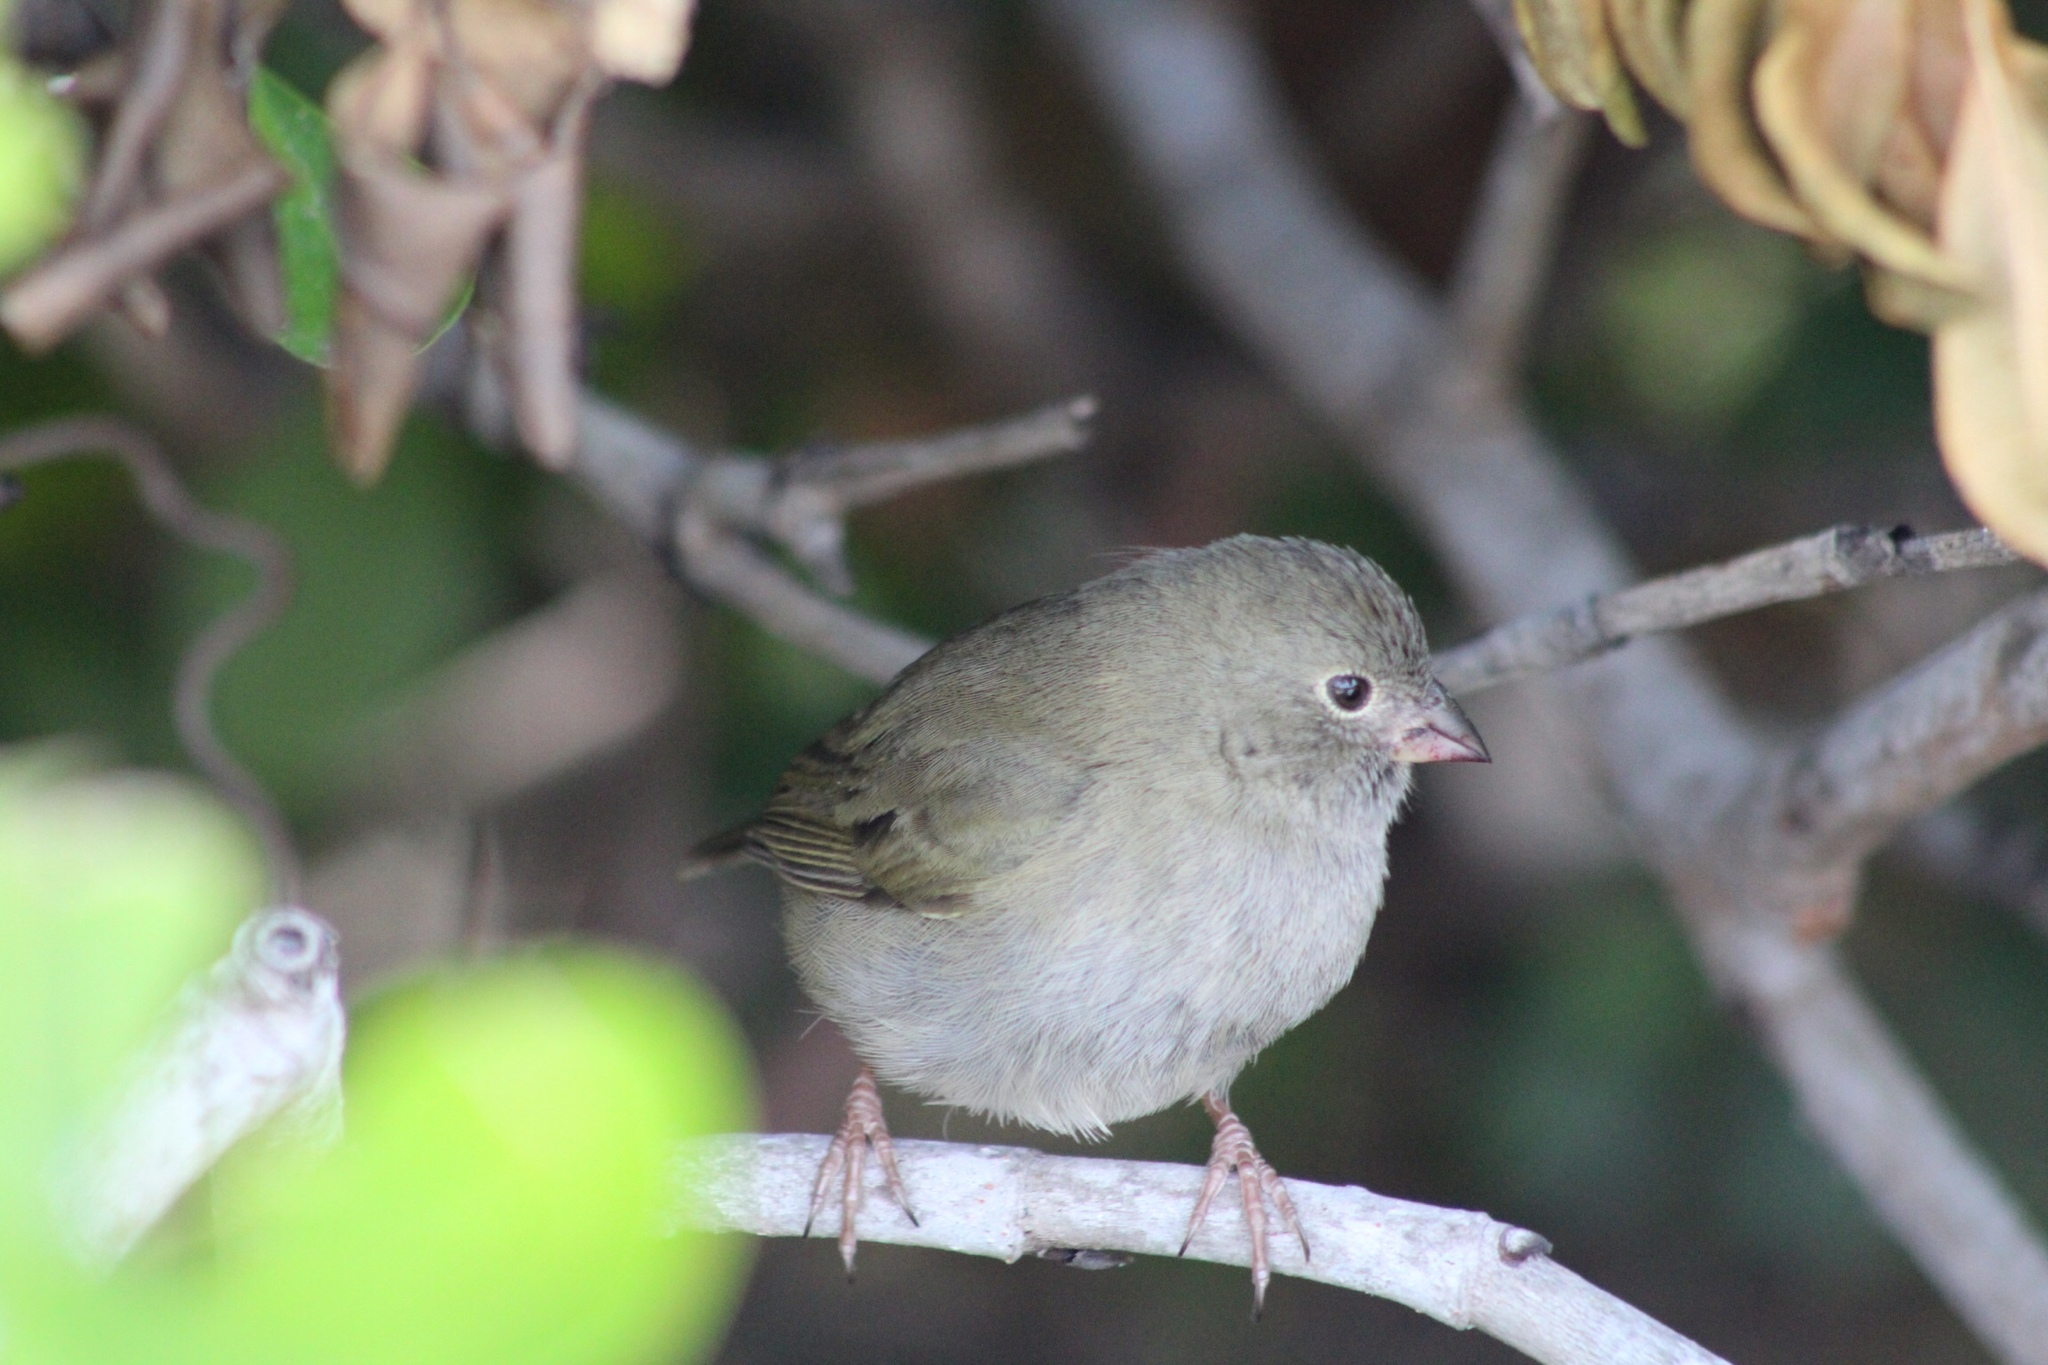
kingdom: Animalia
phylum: Chordata
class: Aves
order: Passeriformes
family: Thraupidae
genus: Melanospiza
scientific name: Melanospiza bicolor
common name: Black-faced grassquit
